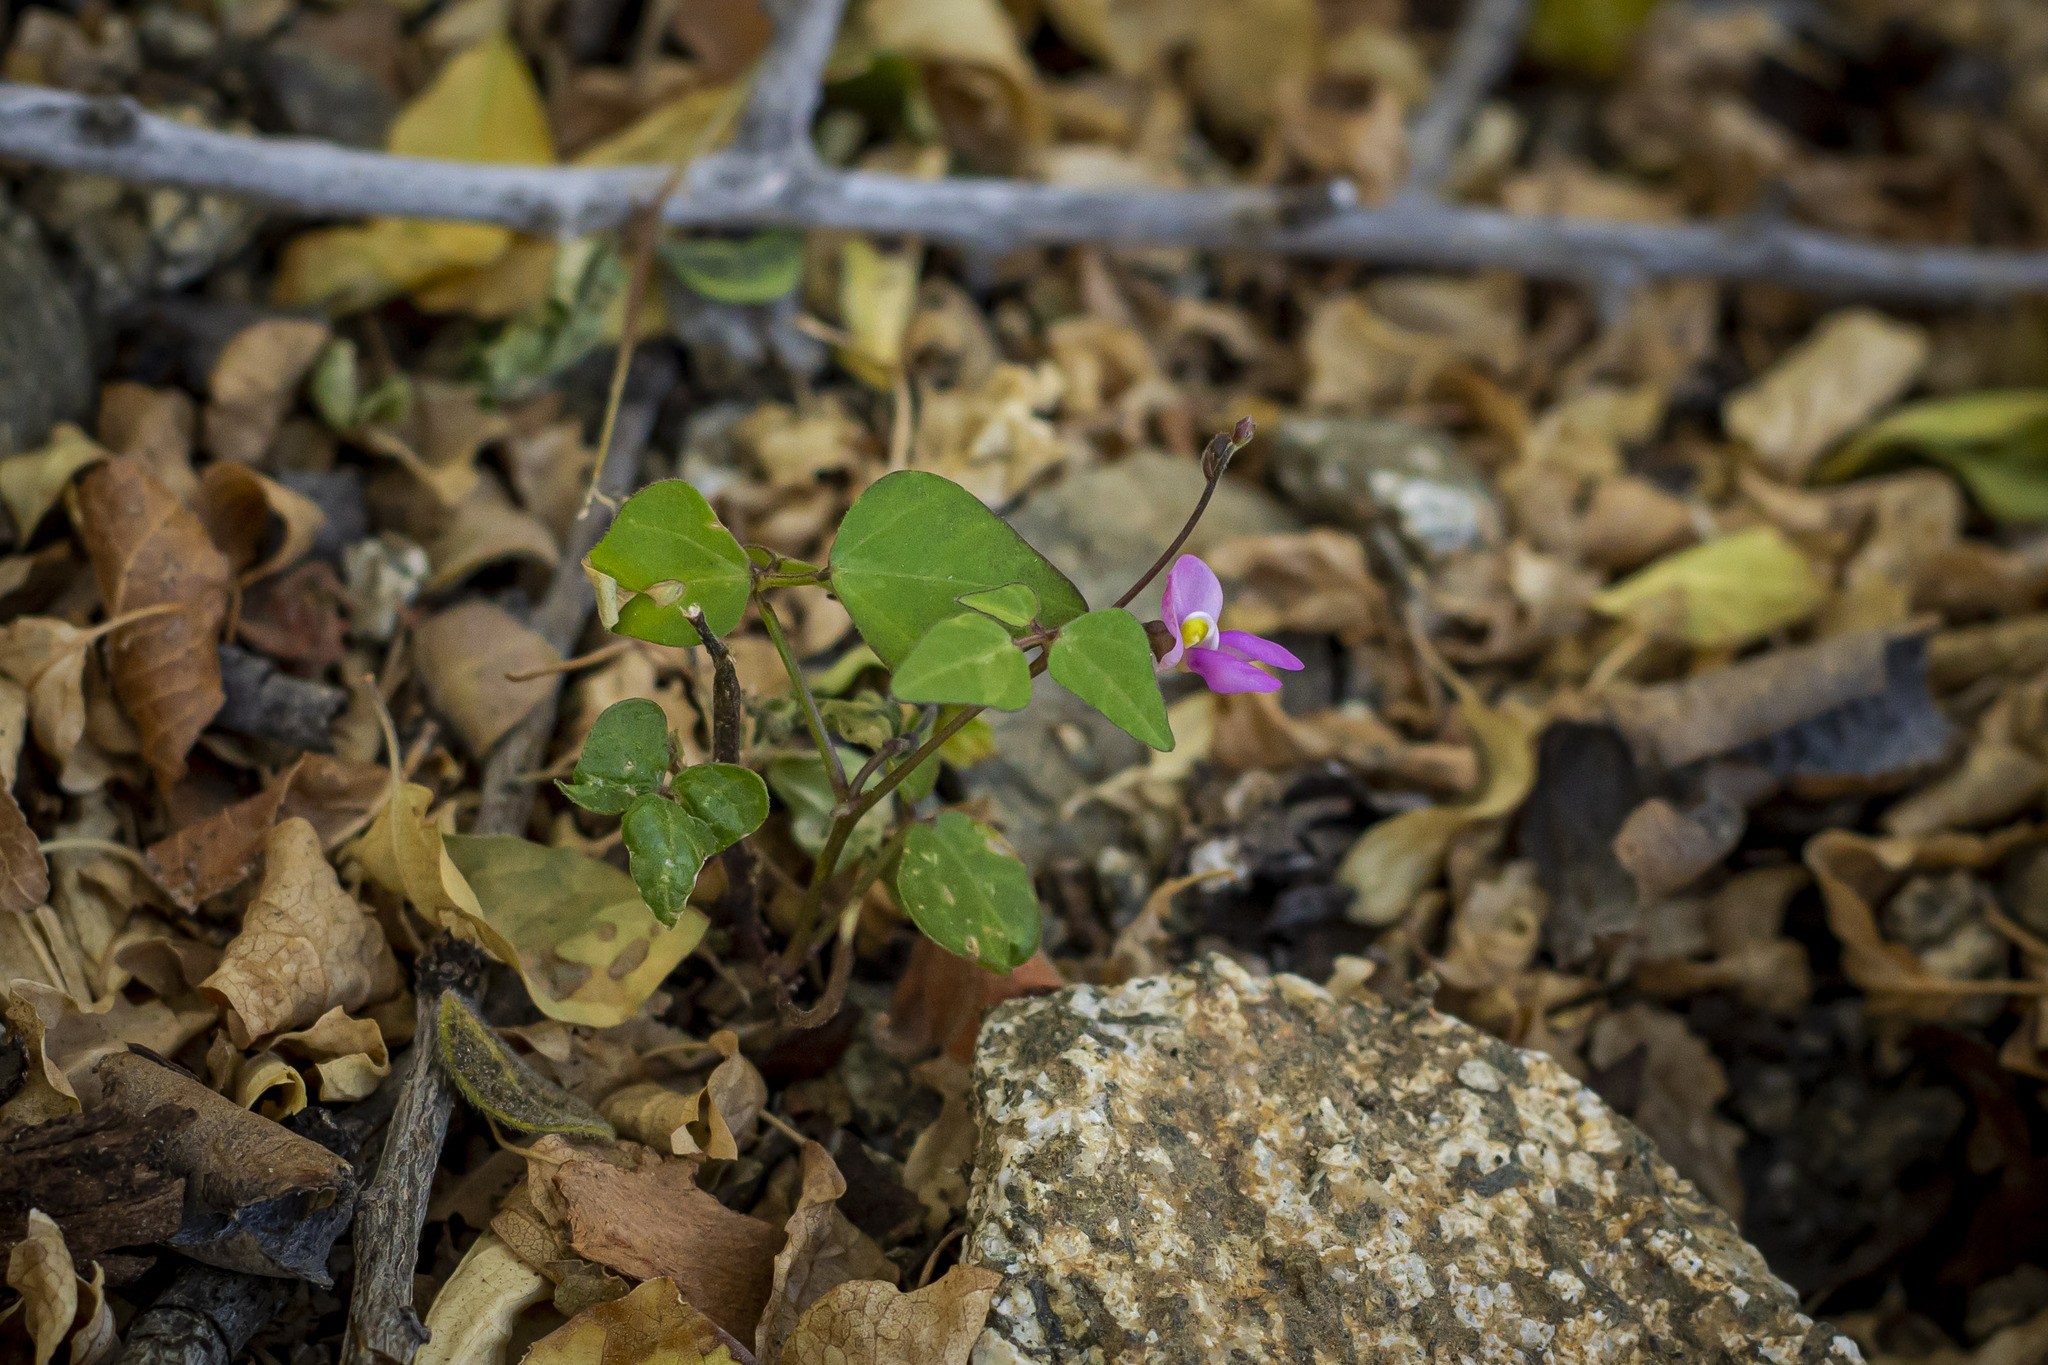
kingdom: Plantae
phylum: Tracheophyta
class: Magnoliopsida
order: Fabales
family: Fabaceae
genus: Phaseolus
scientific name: Phaseolus filiformis
